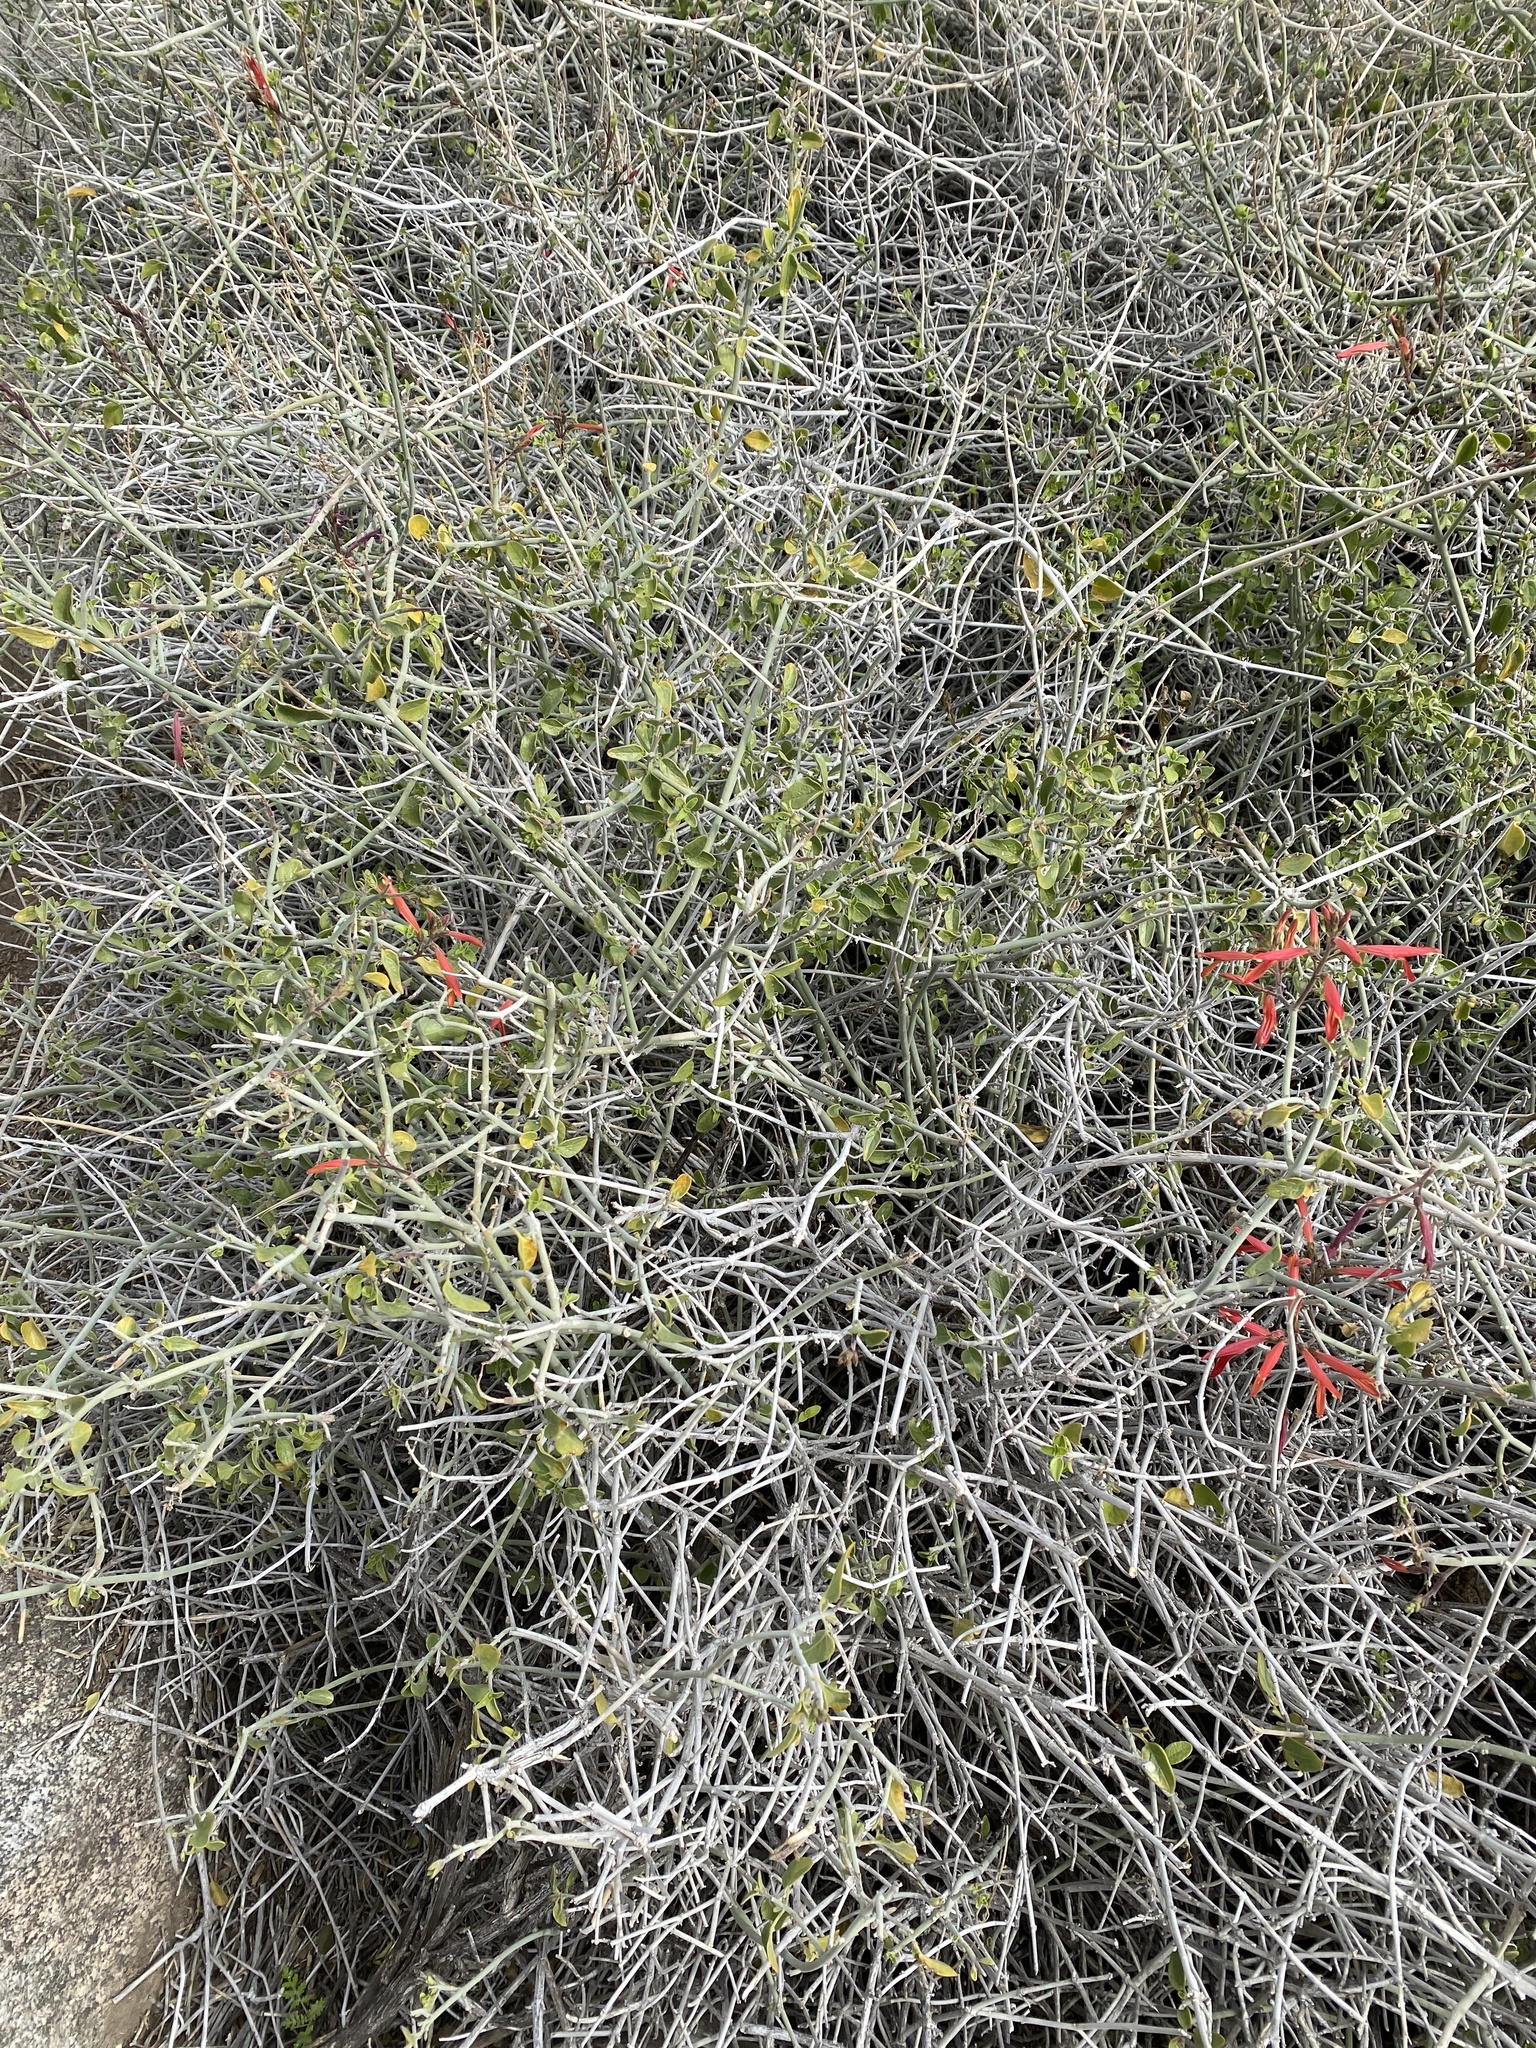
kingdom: Plantae
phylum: Tracheophyta
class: Magnoliopsida
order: Lamiales
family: Acanthaceae
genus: Justicia
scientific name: Justicia californica
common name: Chuparosa-honeysuckle
